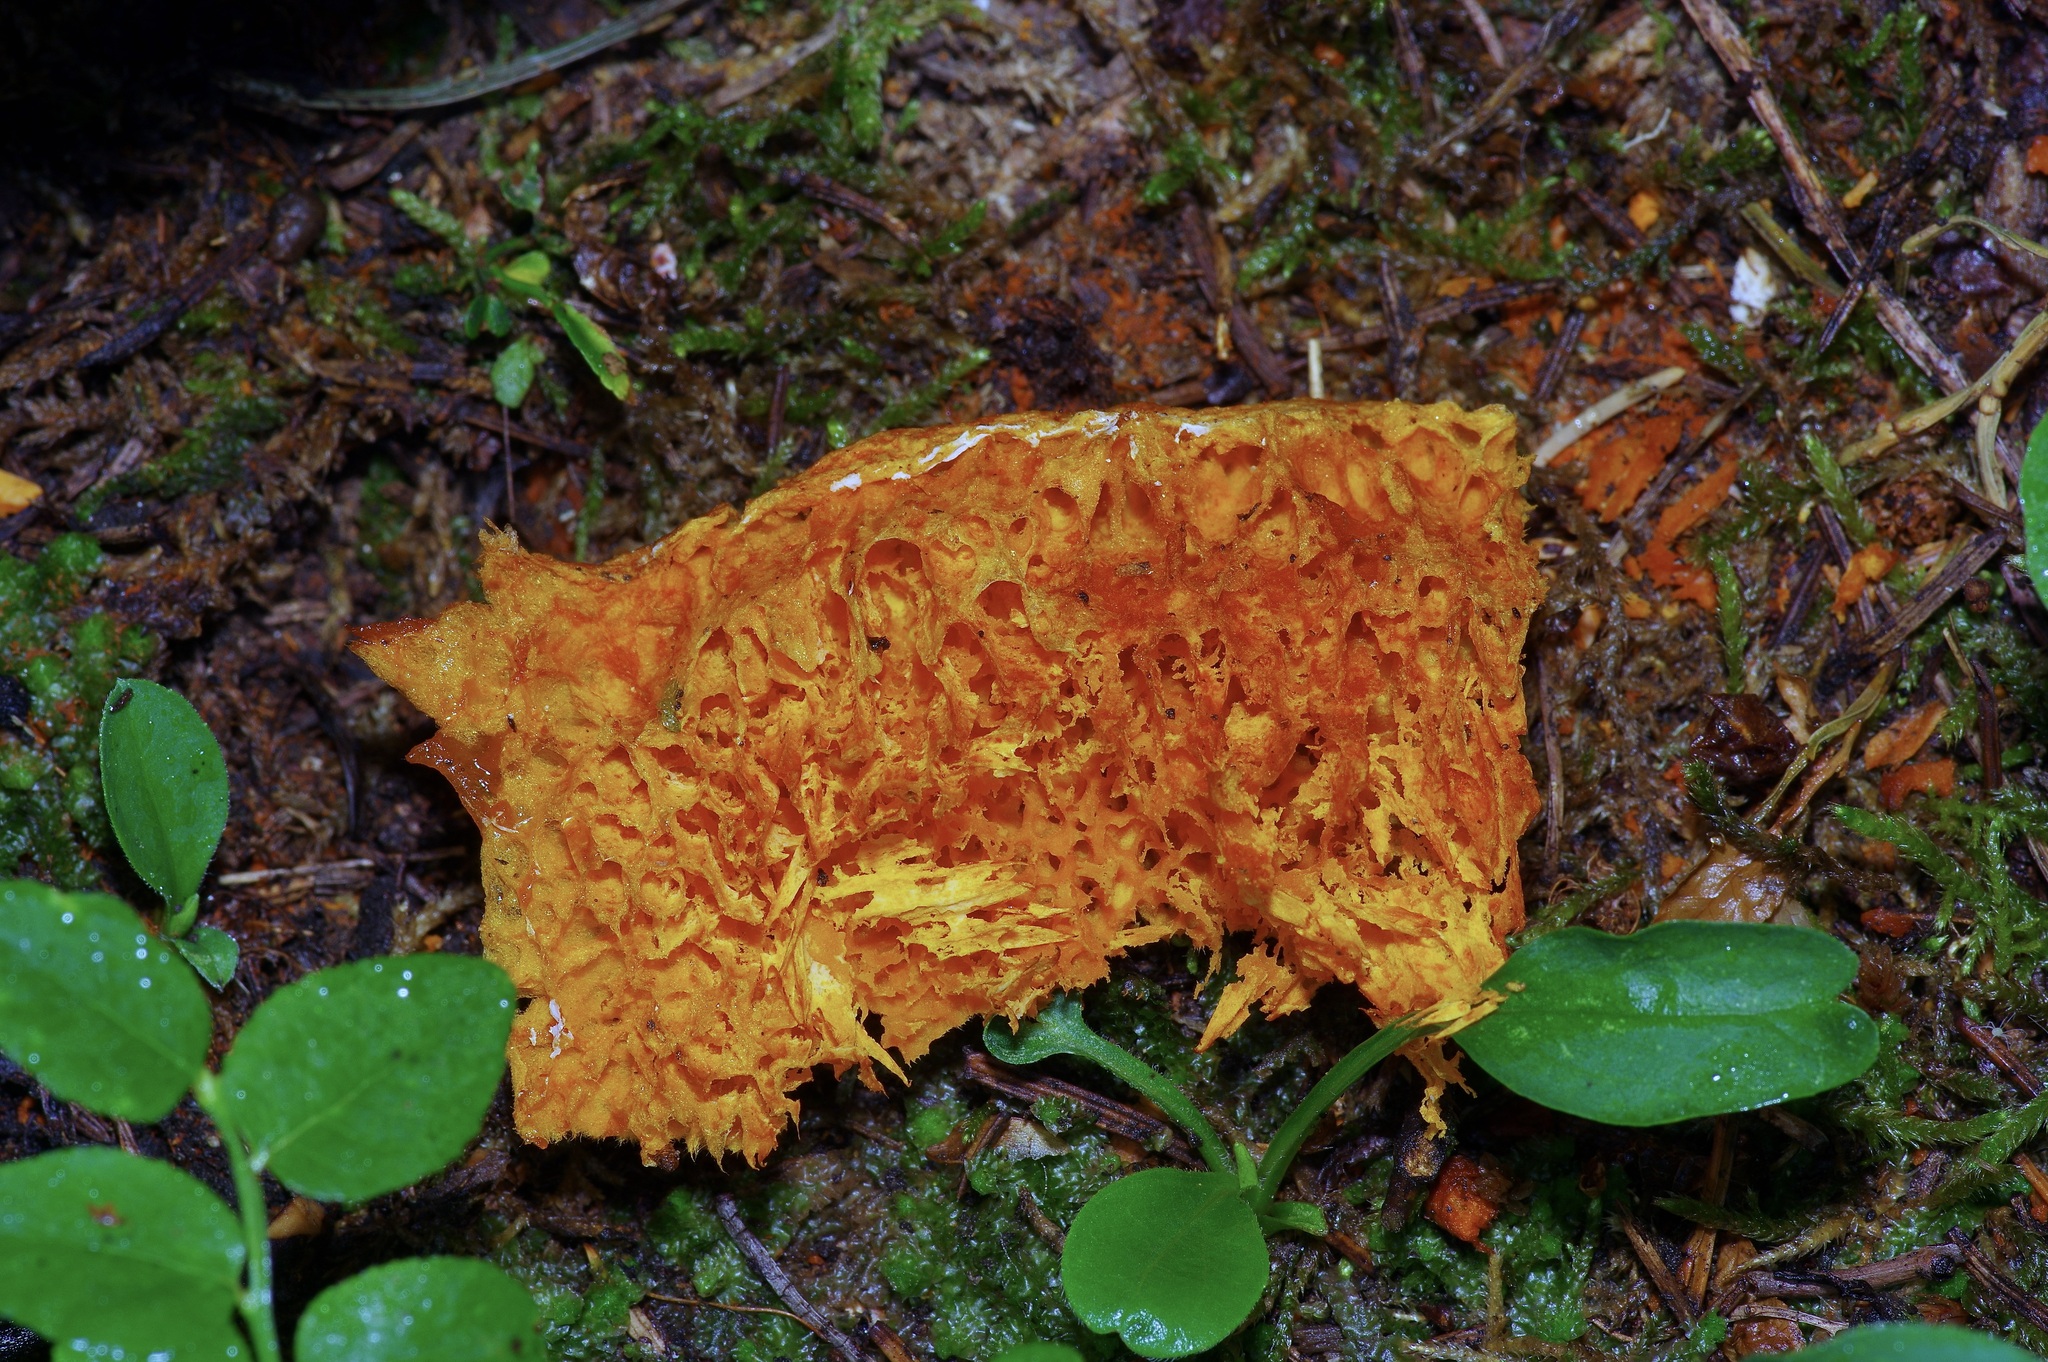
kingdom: Fungi
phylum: Basidiomycota
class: Agaricomycetes
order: Polyporales
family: Pycnoporellaceae
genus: Pycnoporellus
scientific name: Pycnoporellus alboluteus
